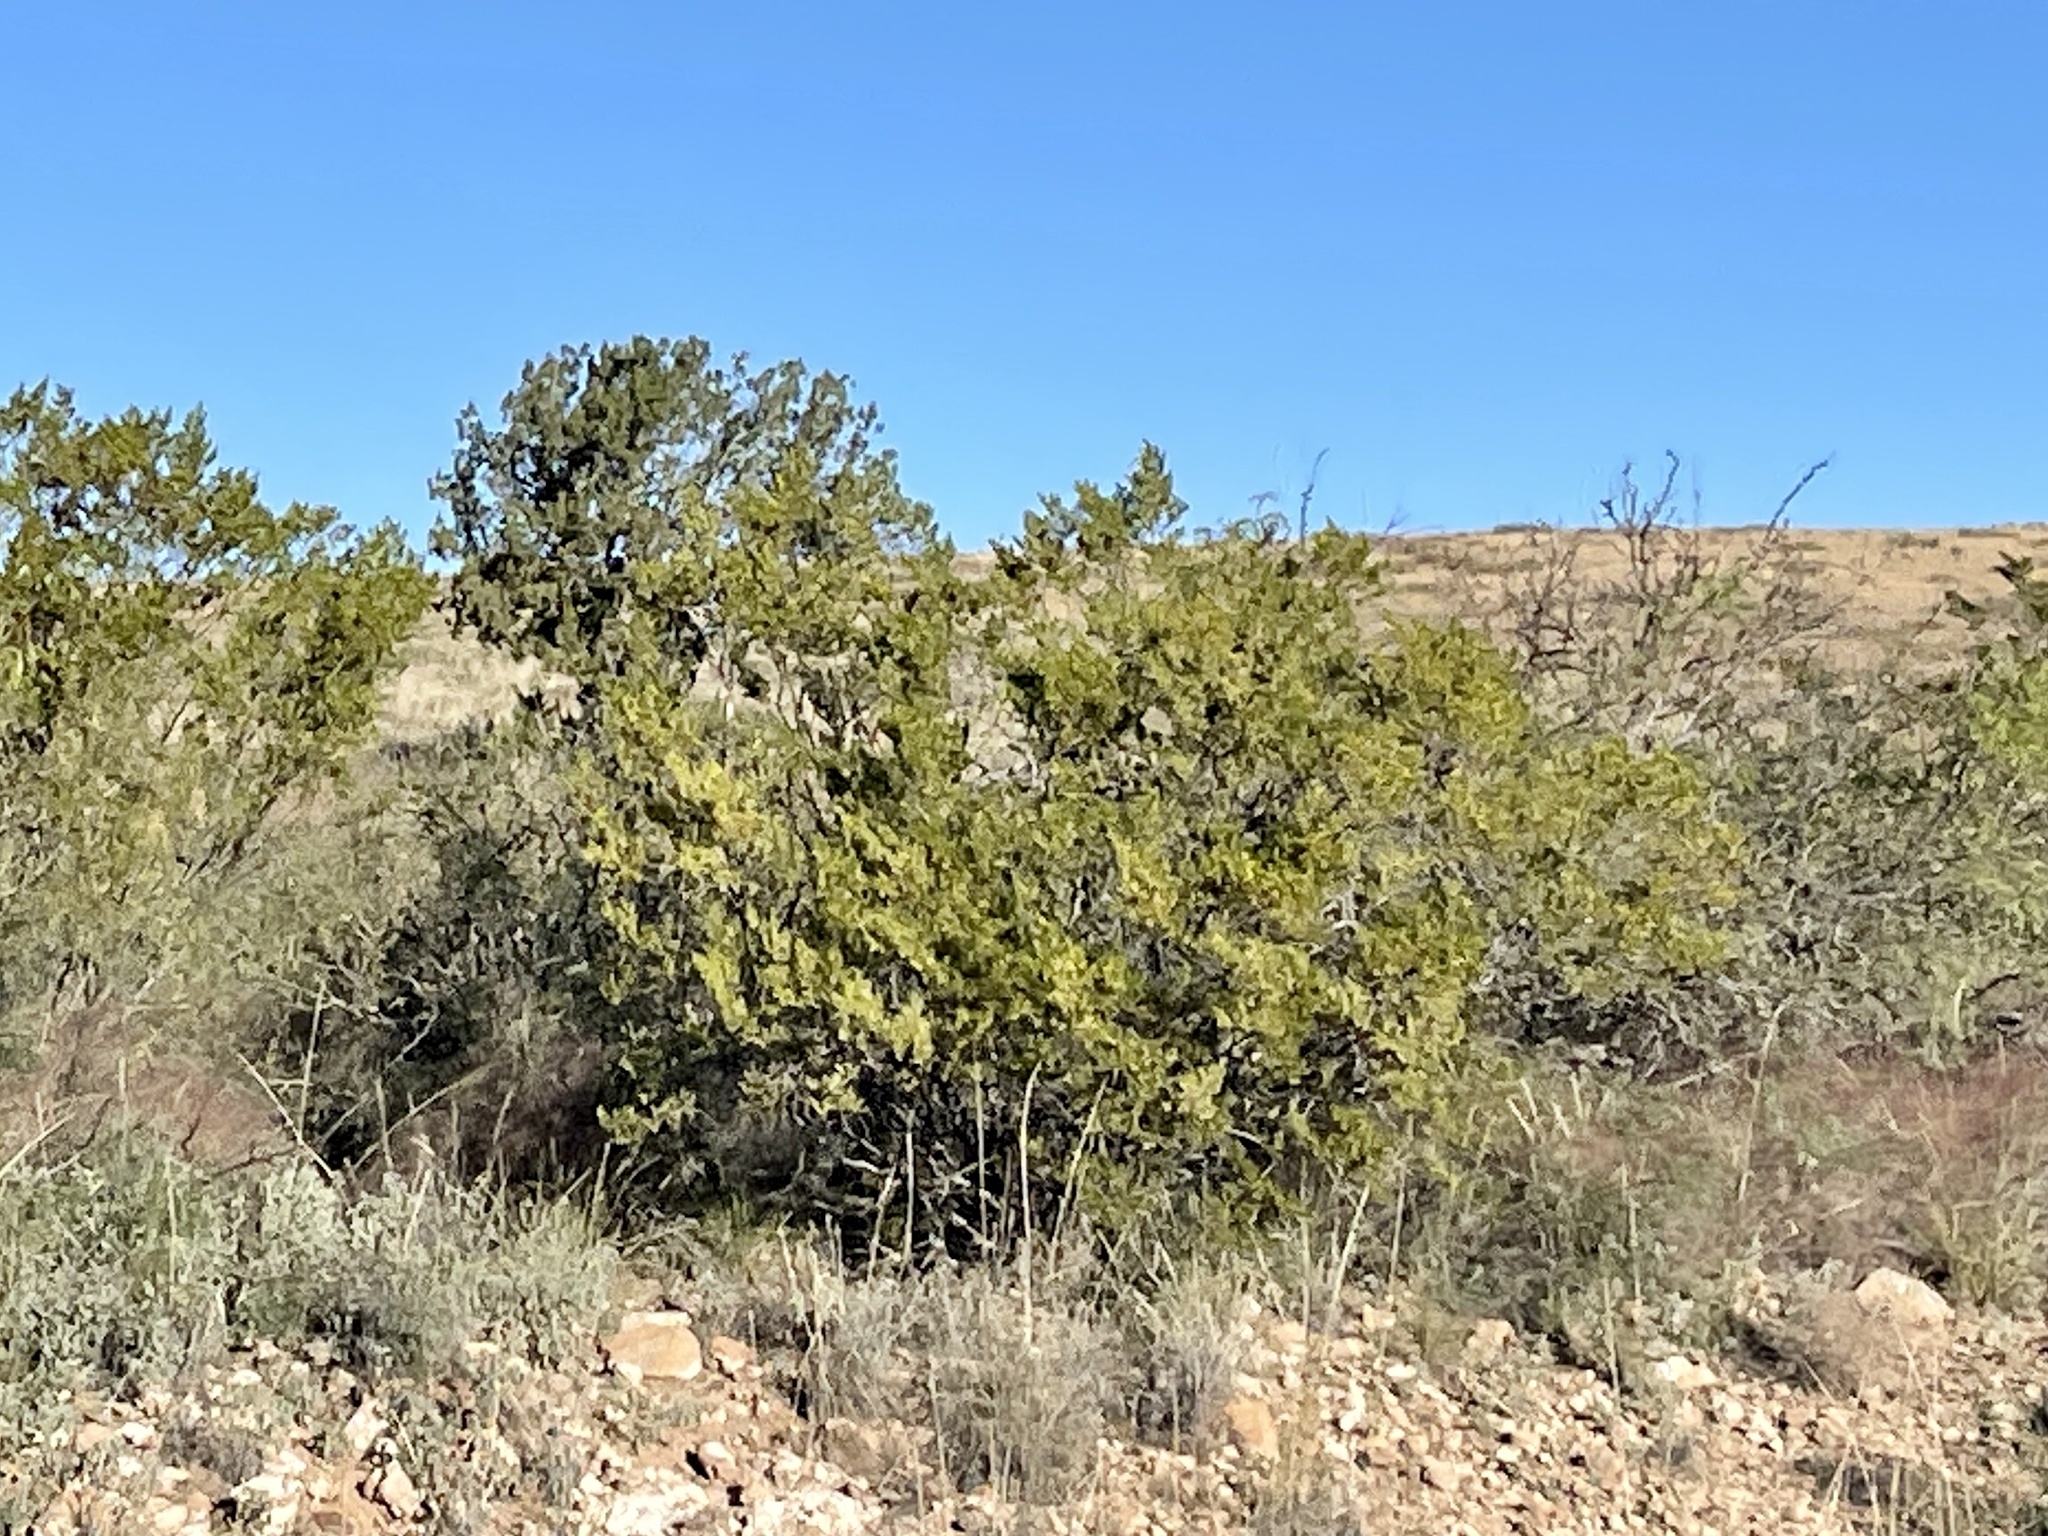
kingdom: Plantae
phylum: Tracheophyta
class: Magnoliopsida
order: Zygophyllales
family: Zygophyllaceae
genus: Larrea
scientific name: Larrea tridentata
